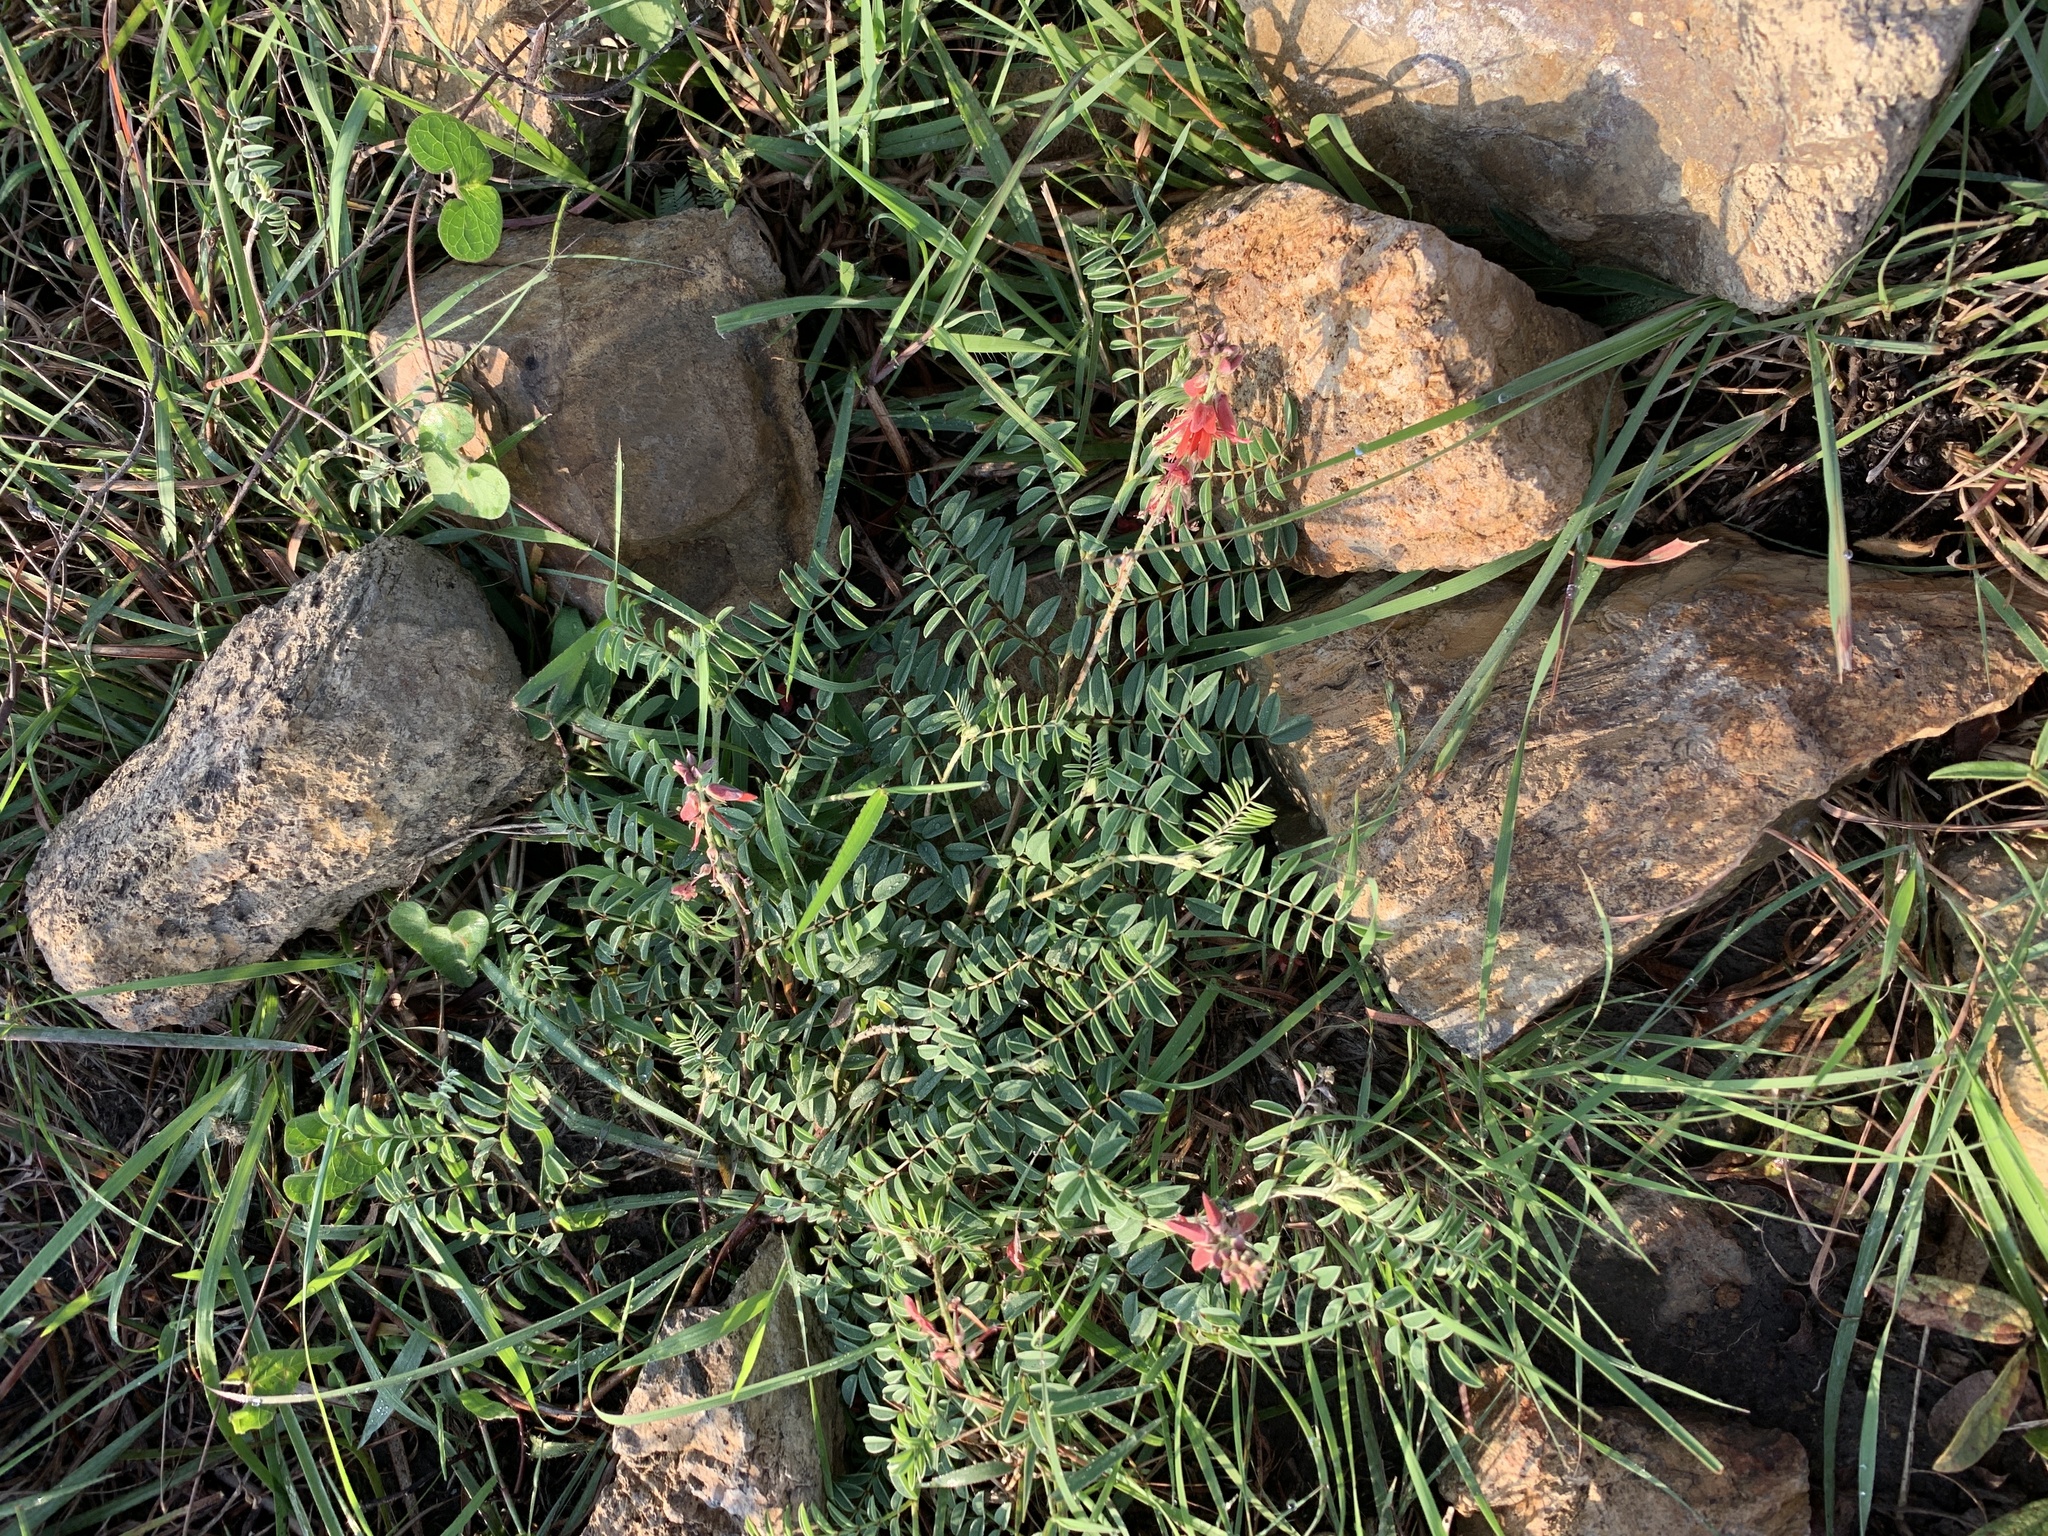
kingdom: Plantae
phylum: Tracheophyta
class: Magnoliopsida
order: Fabales
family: Fabaceae
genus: Indigofera
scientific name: Indigofera williamsonii
